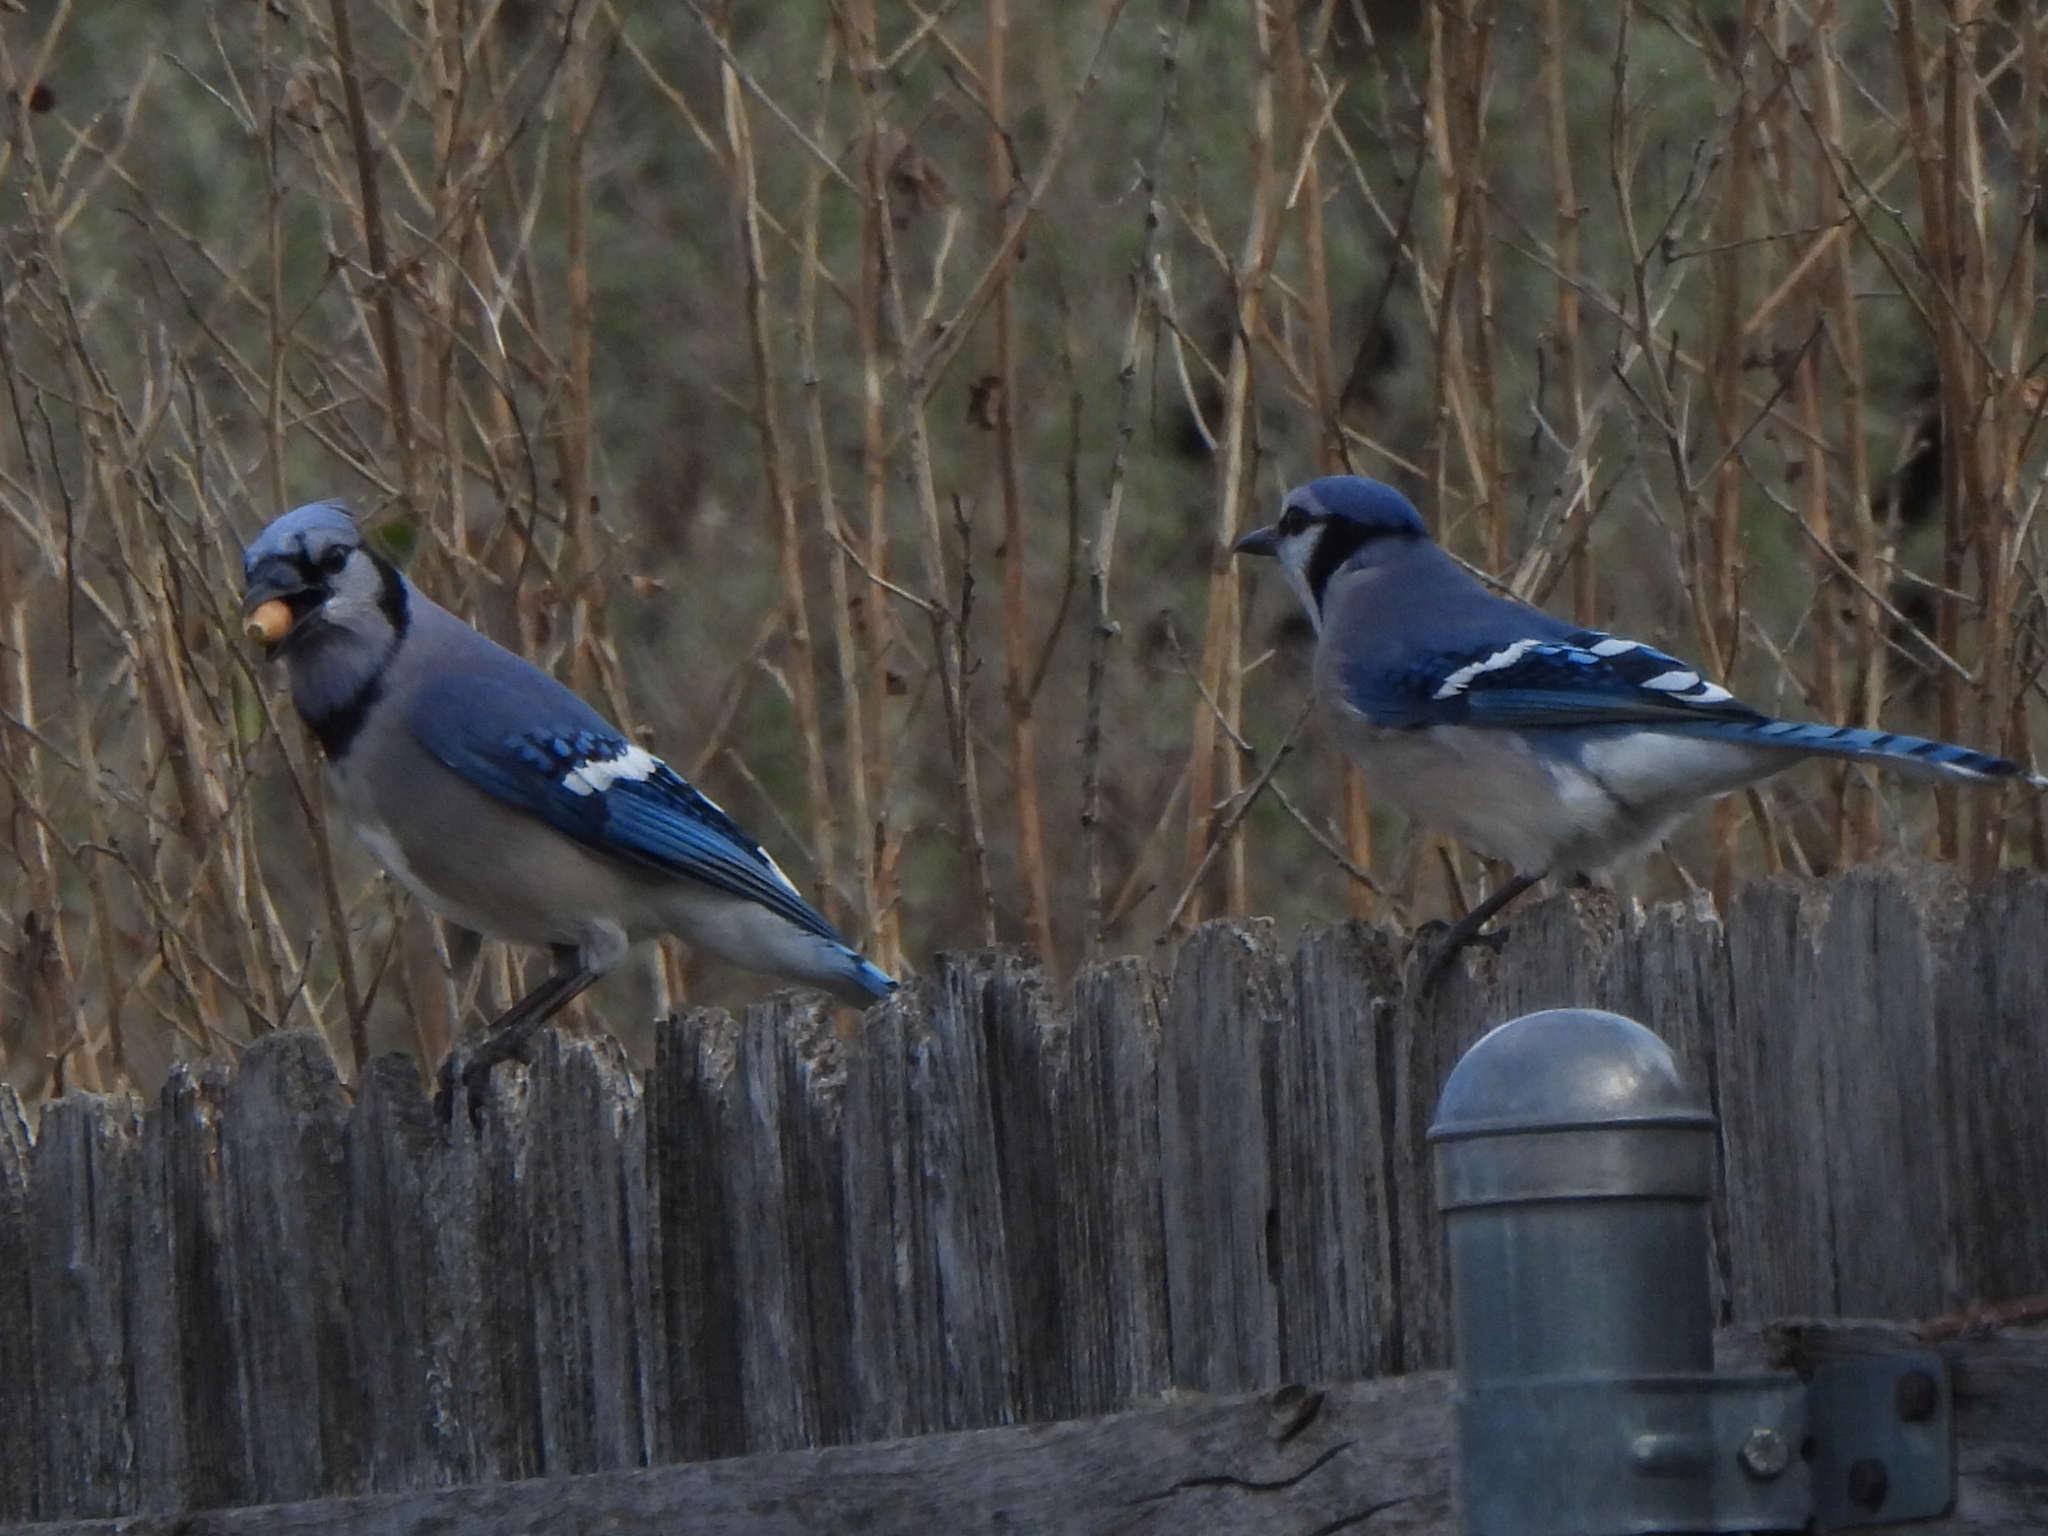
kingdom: Animalia
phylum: Chordata
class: Aves
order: Passeriformes
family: Corvidae
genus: Cyanocitta
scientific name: Cyanocitta cristata
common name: Blue jay
